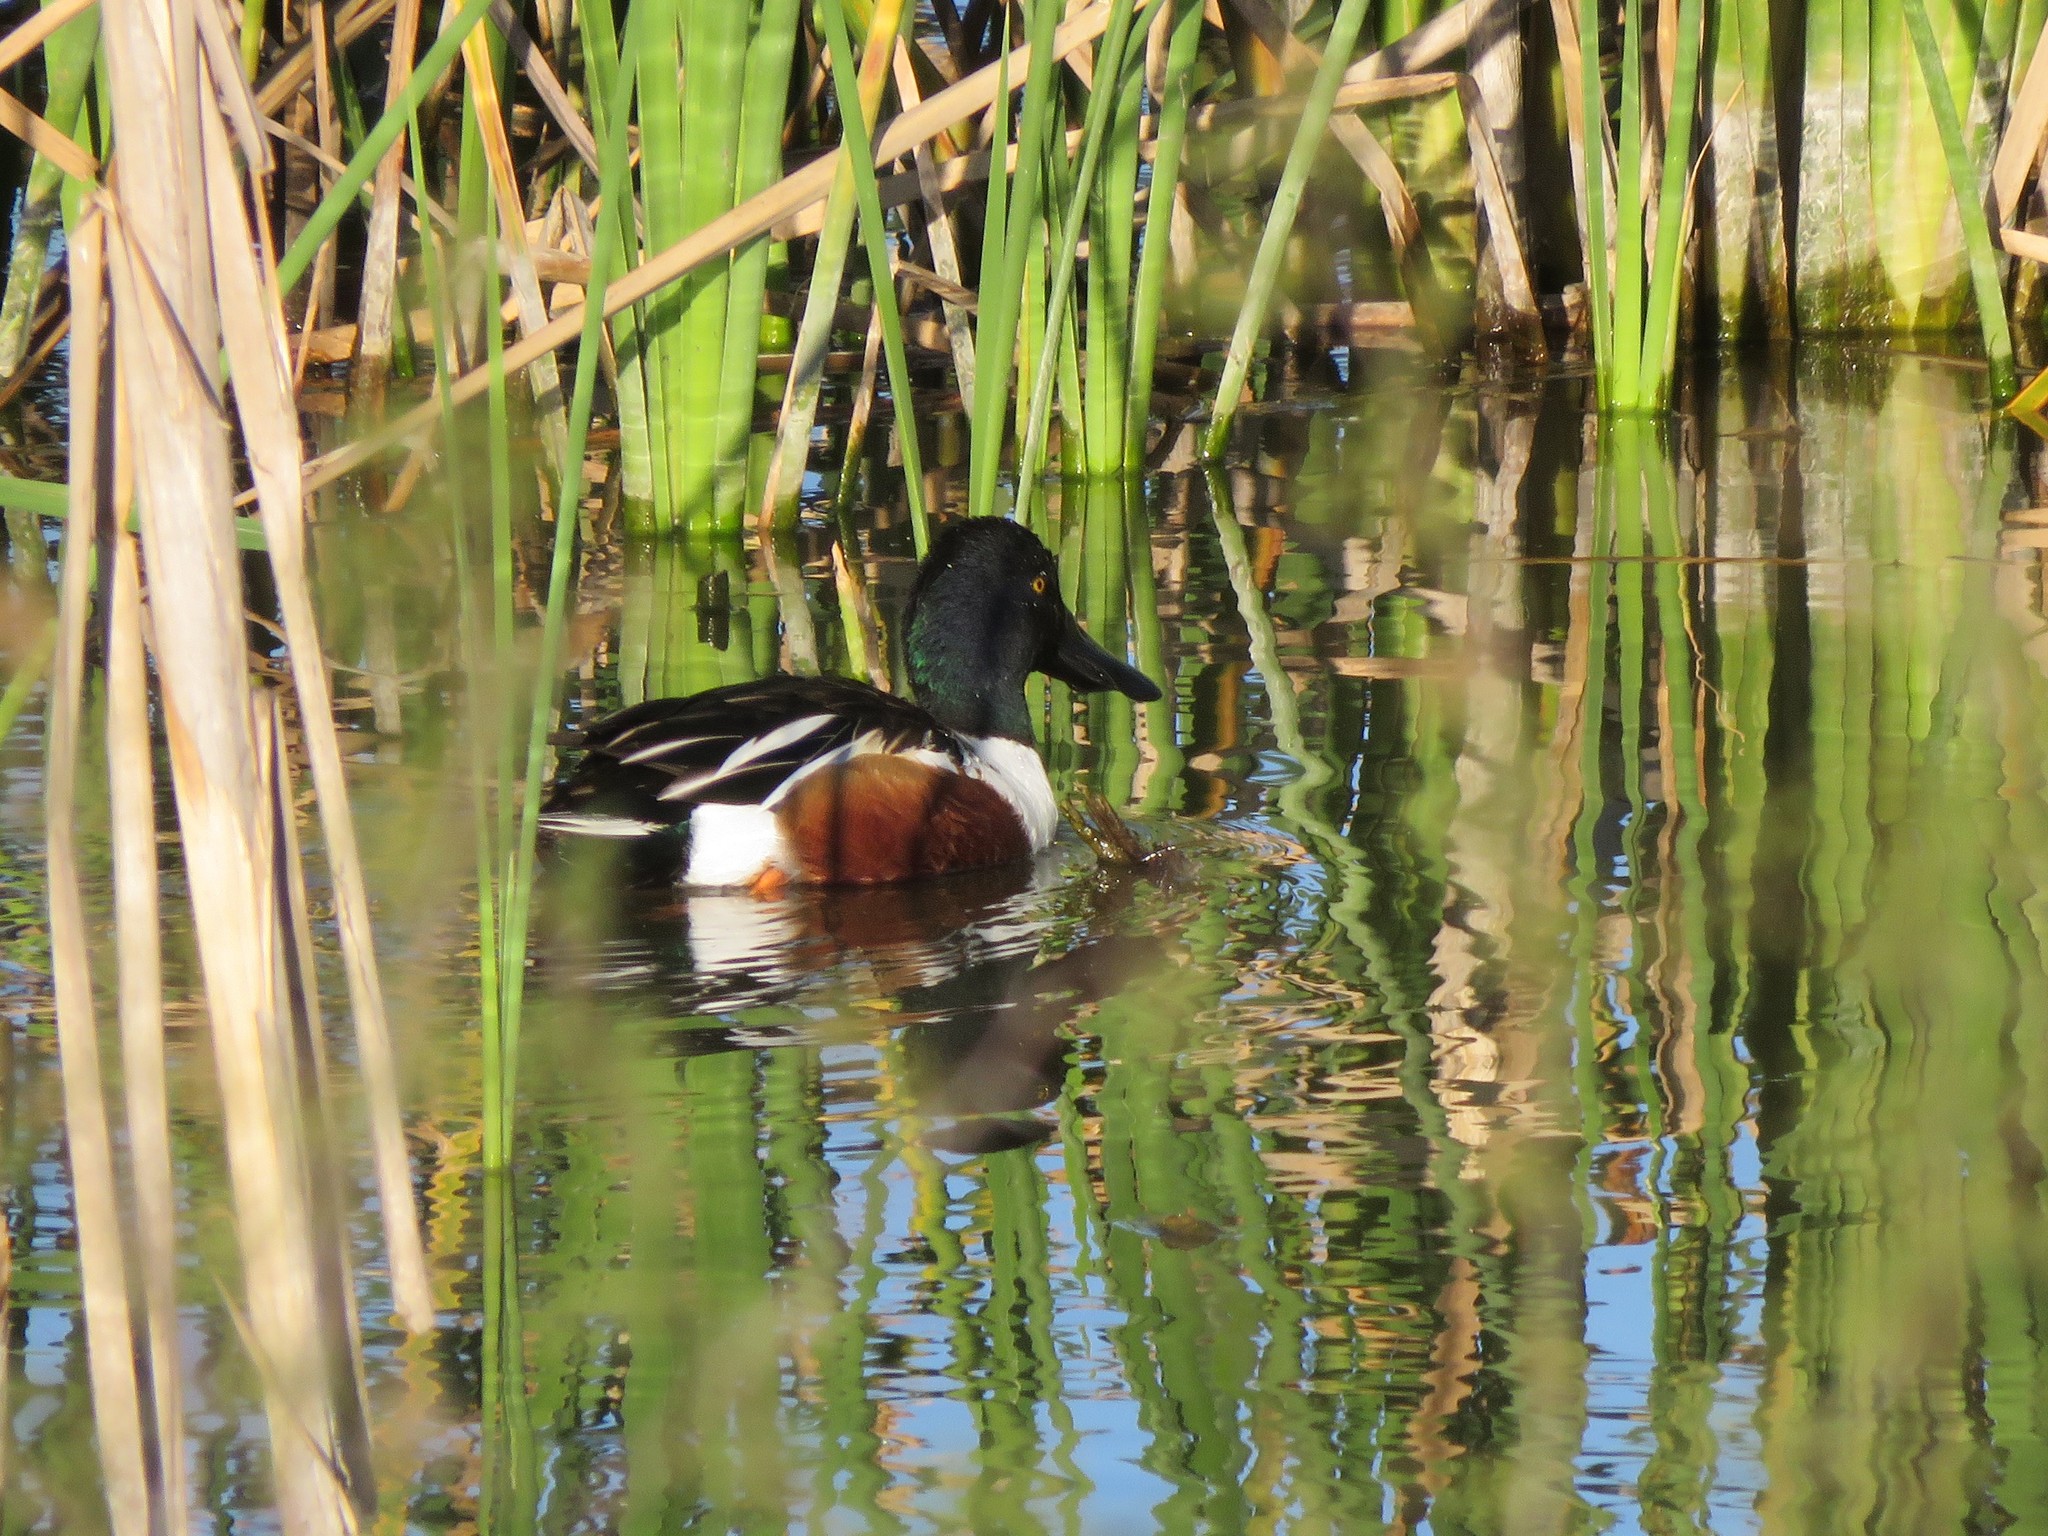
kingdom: Animalia
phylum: Chordata
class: Aves
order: Anseriformes
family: Anatidae
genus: Spatula
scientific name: Spatula clypeata
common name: Northern shoveler
